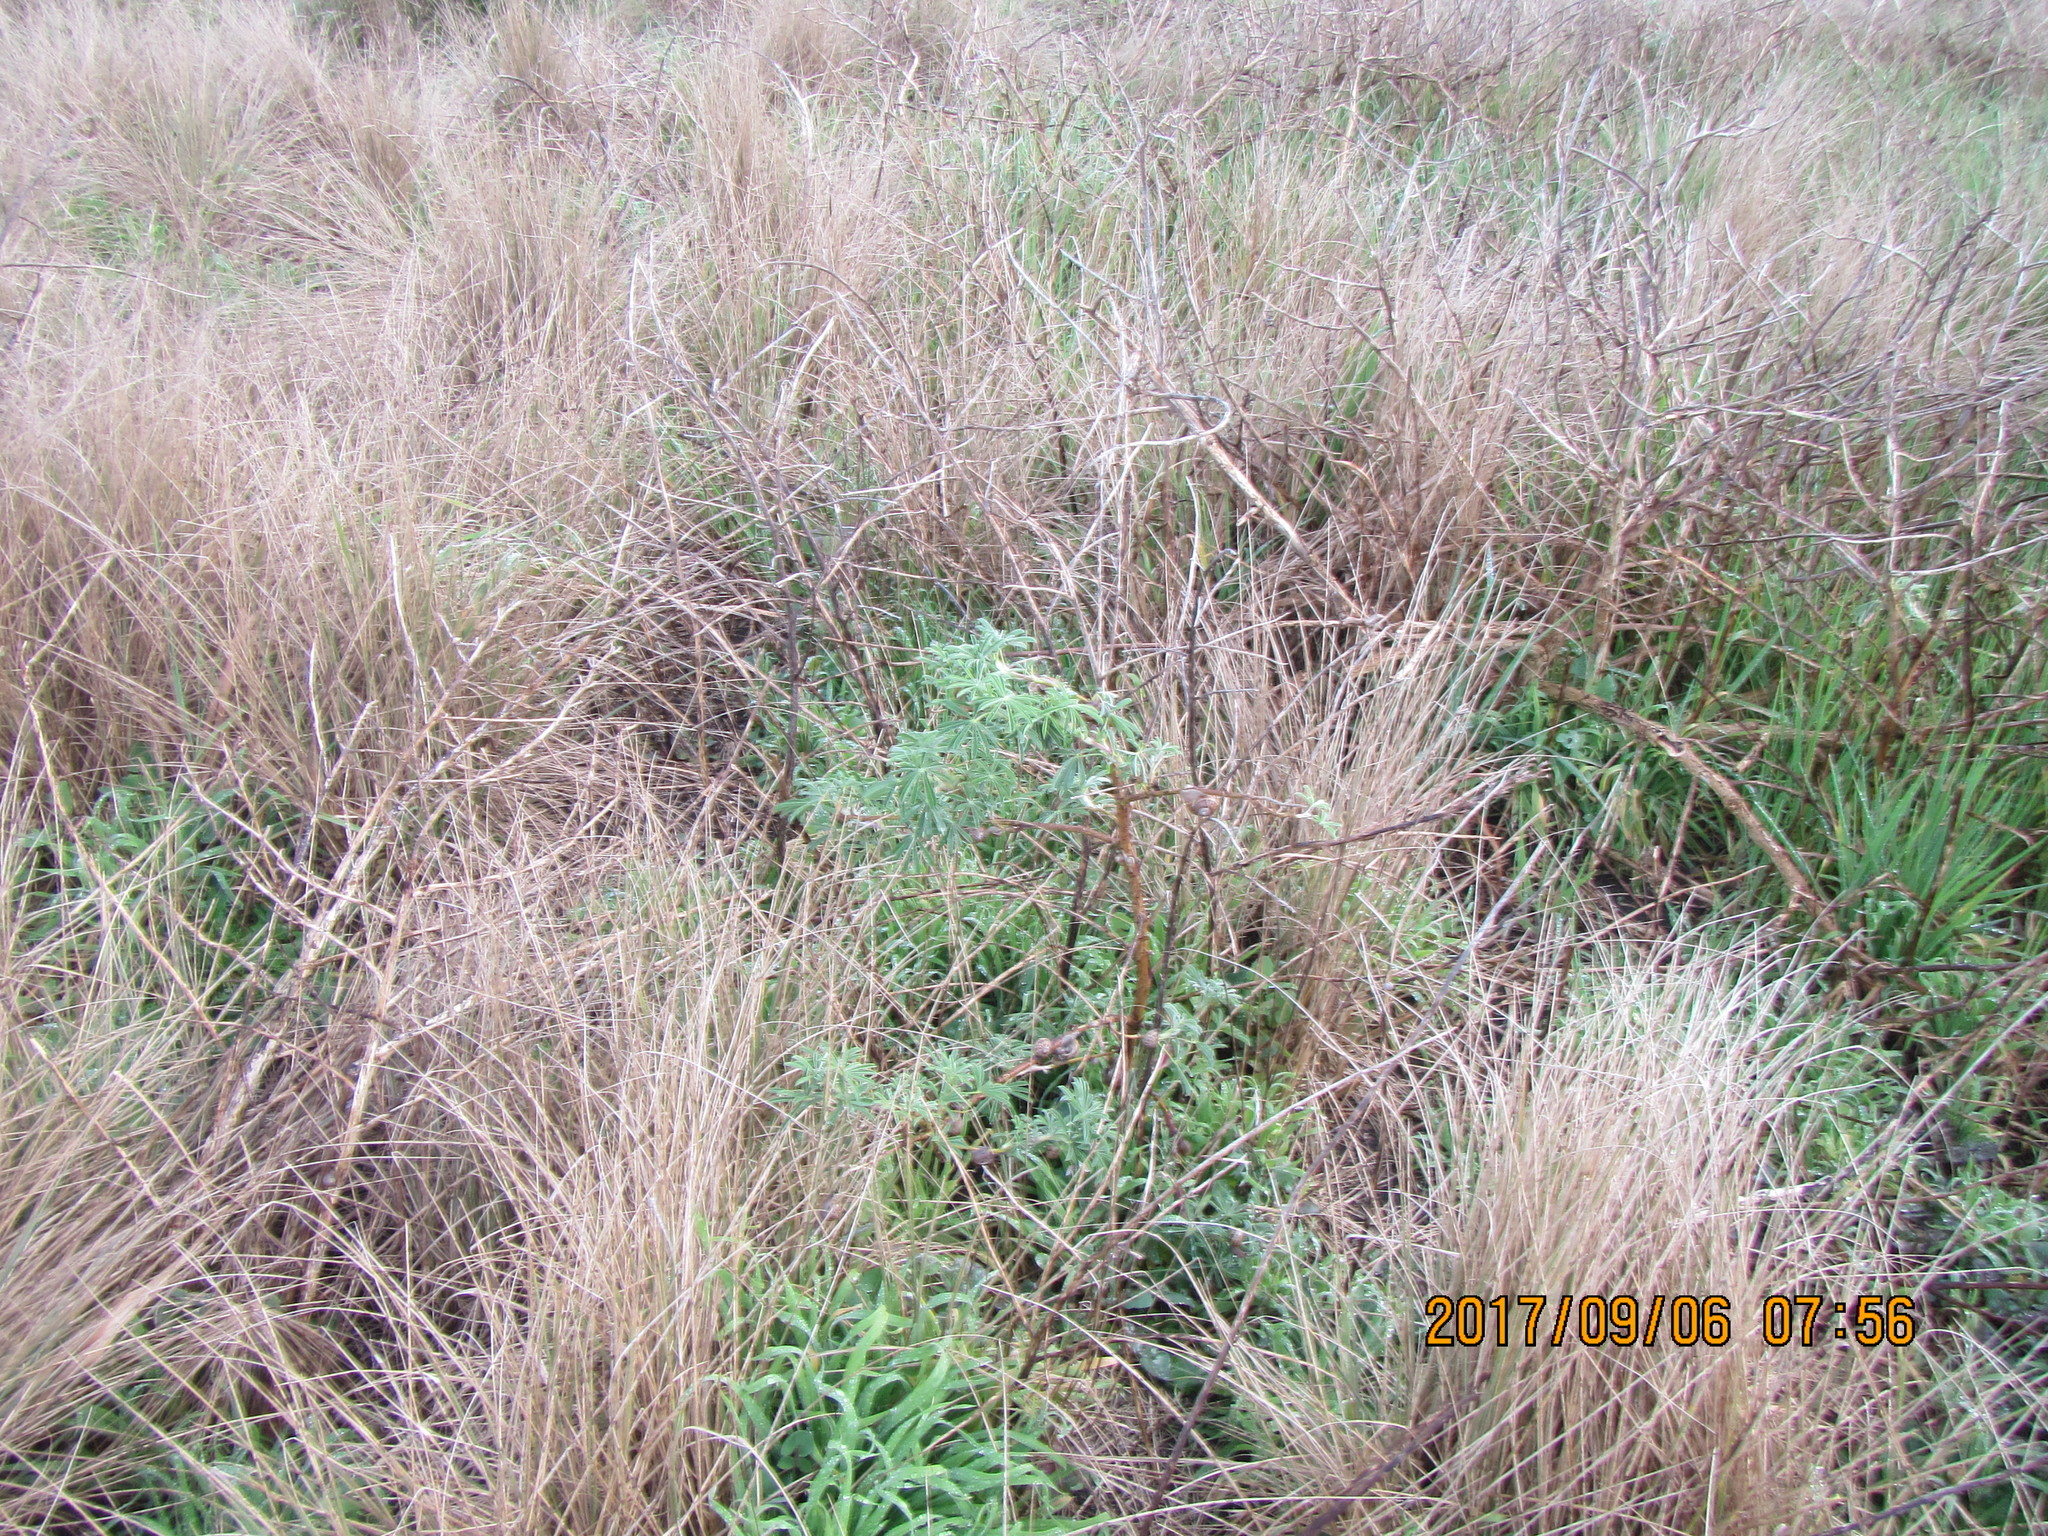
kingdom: Plantae
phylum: Tracheophyta
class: Magnoliopsida
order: Fabales
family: Fabaceae
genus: Lupinus
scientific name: Lupinus arboreus
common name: Yellow bush lupine
